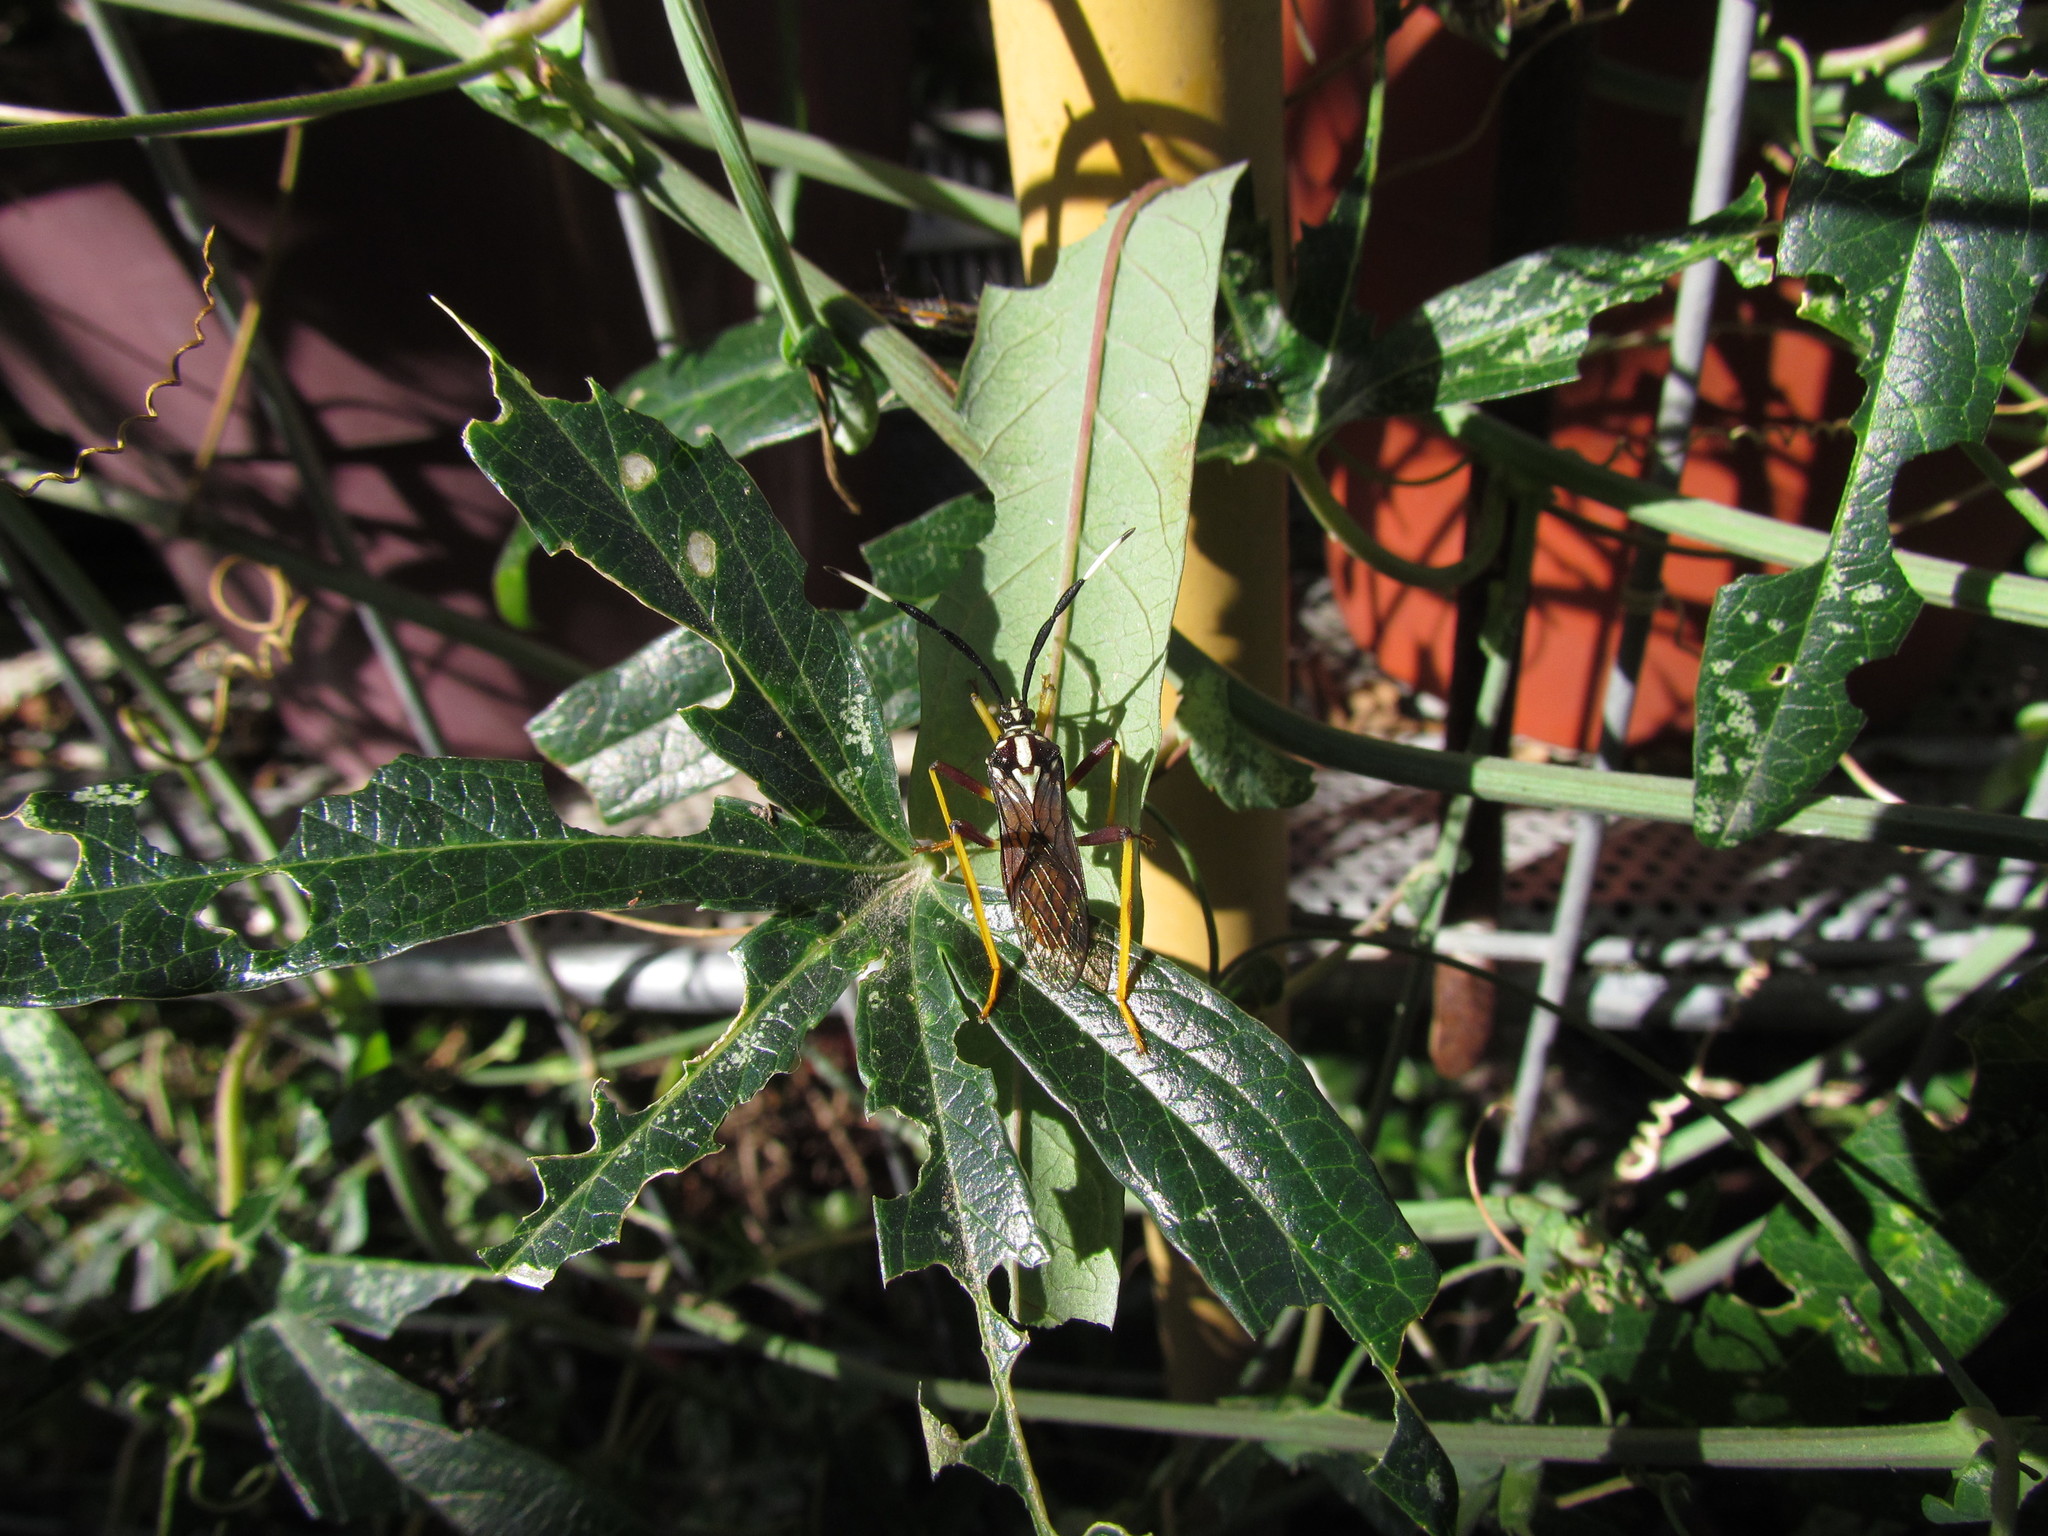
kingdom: Animalia
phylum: Arthropoda
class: Insecta
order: Hemiptera
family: Coreidae
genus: Holhymenia
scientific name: Holhymenia histrio
